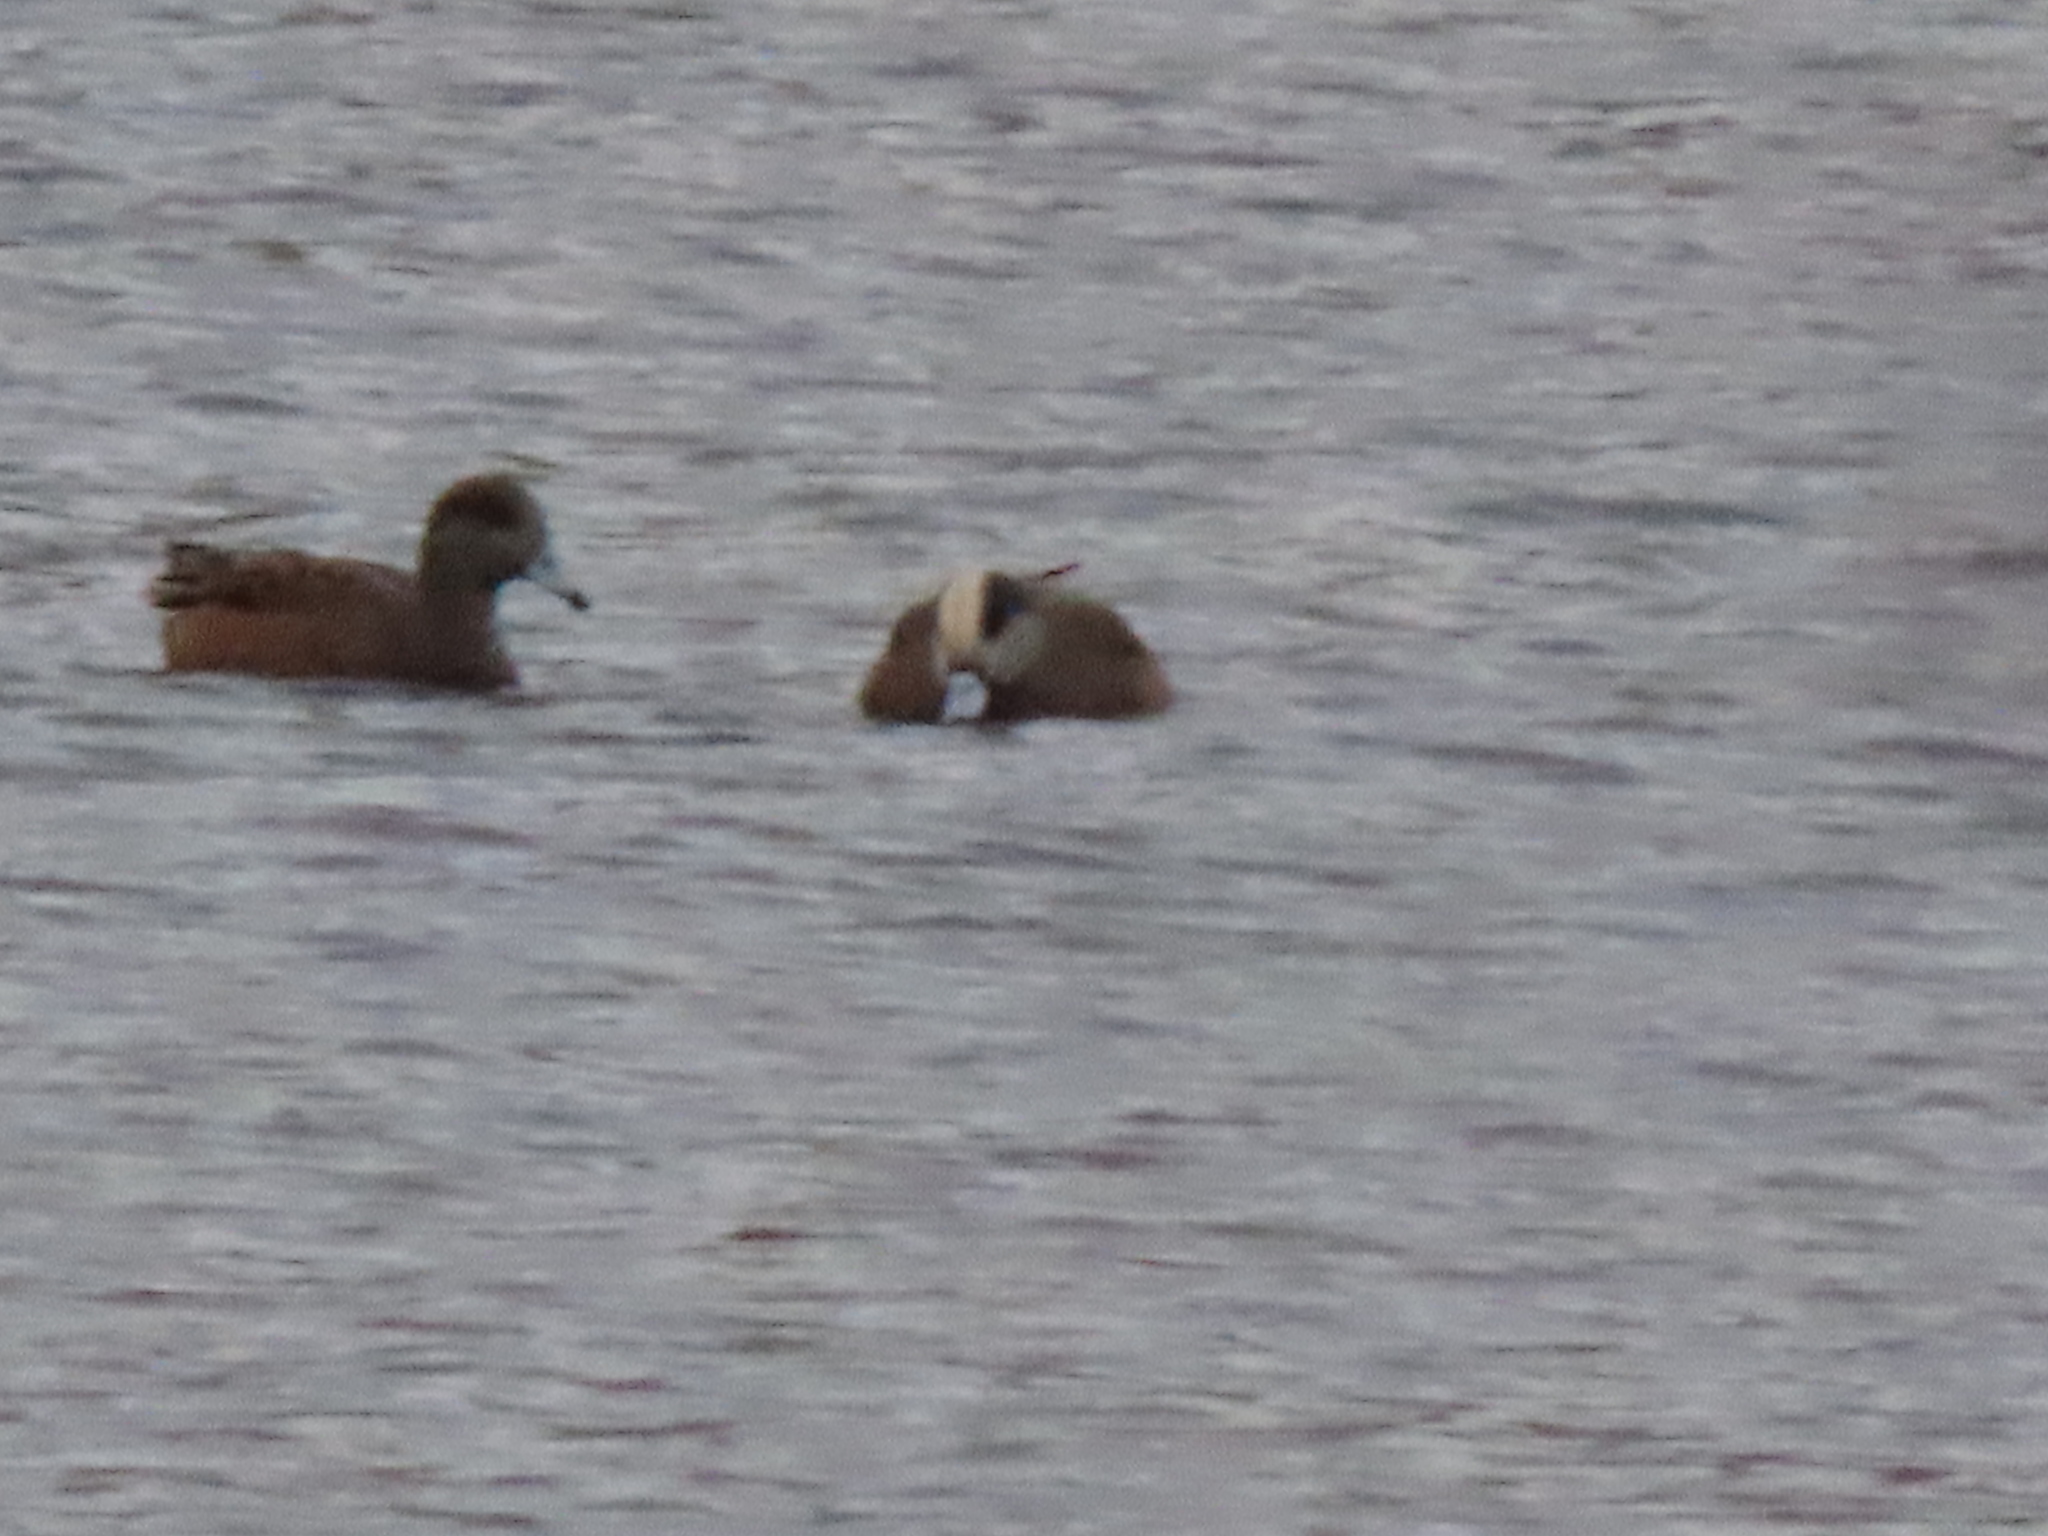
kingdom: Animalia
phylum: Chordata
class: Aves
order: Anseriformes
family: Anatidae
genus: Mareca
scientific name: Mareca americana
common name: American wigeon
